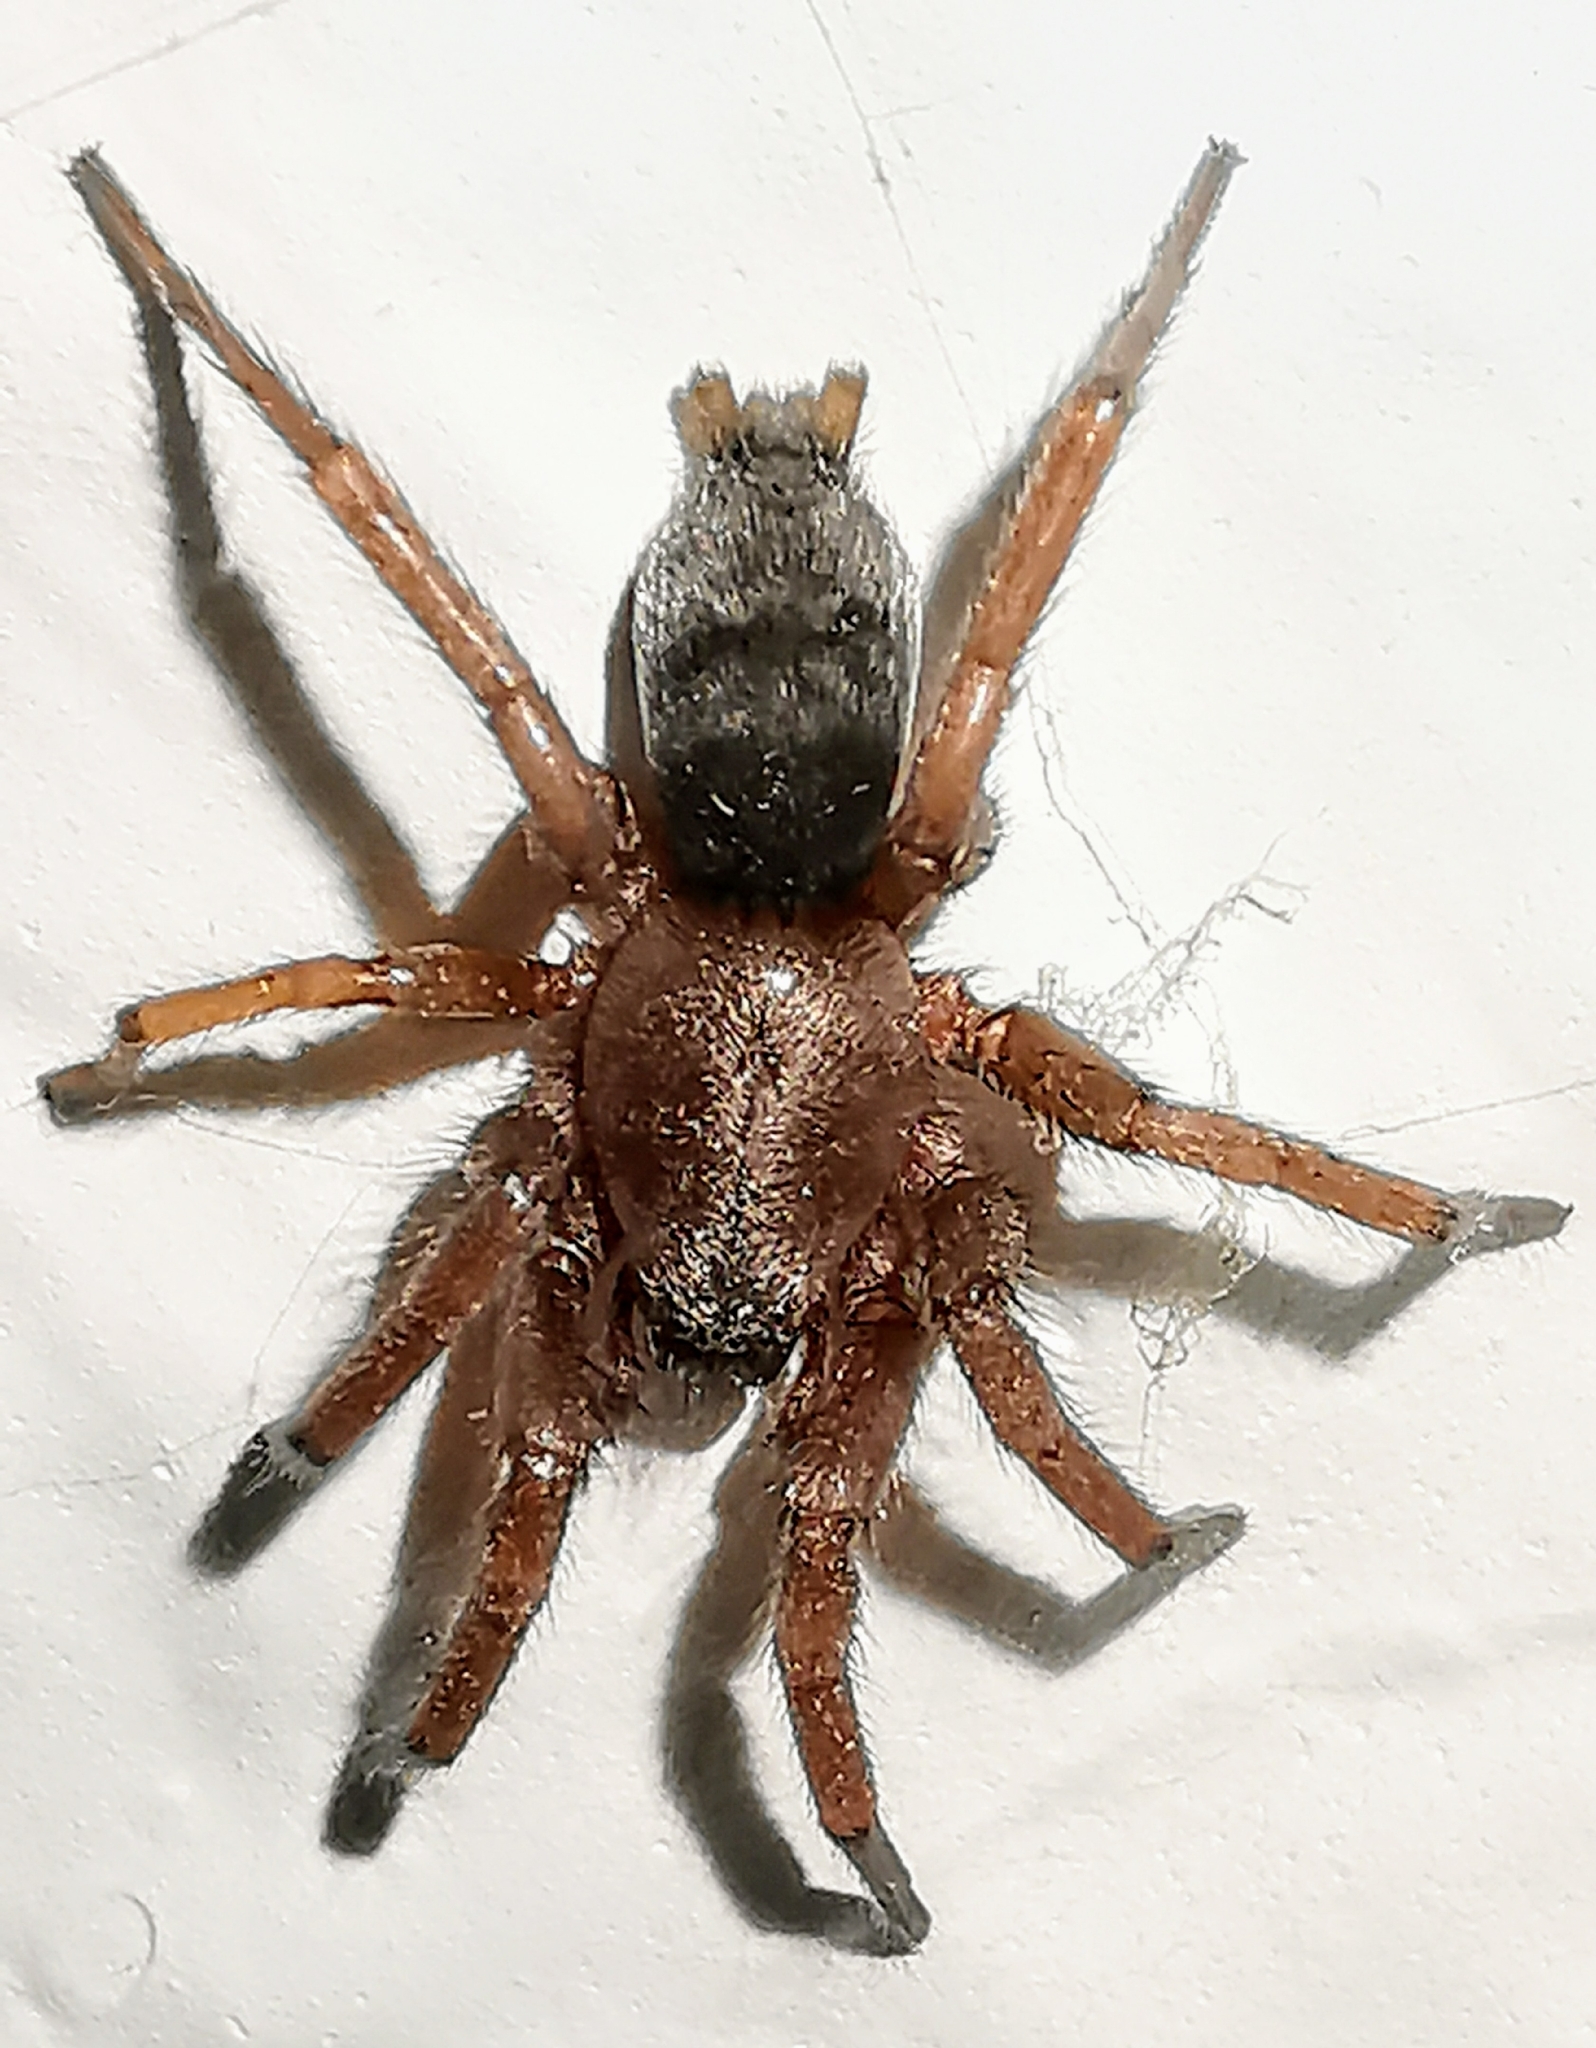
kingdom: Animalia
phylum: Arthropoda
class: Arachnida
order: Araneae
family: Gnaphosidae
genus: Scotophaeus
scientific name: Scotophaeus blackwalli
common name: Mouse spider
